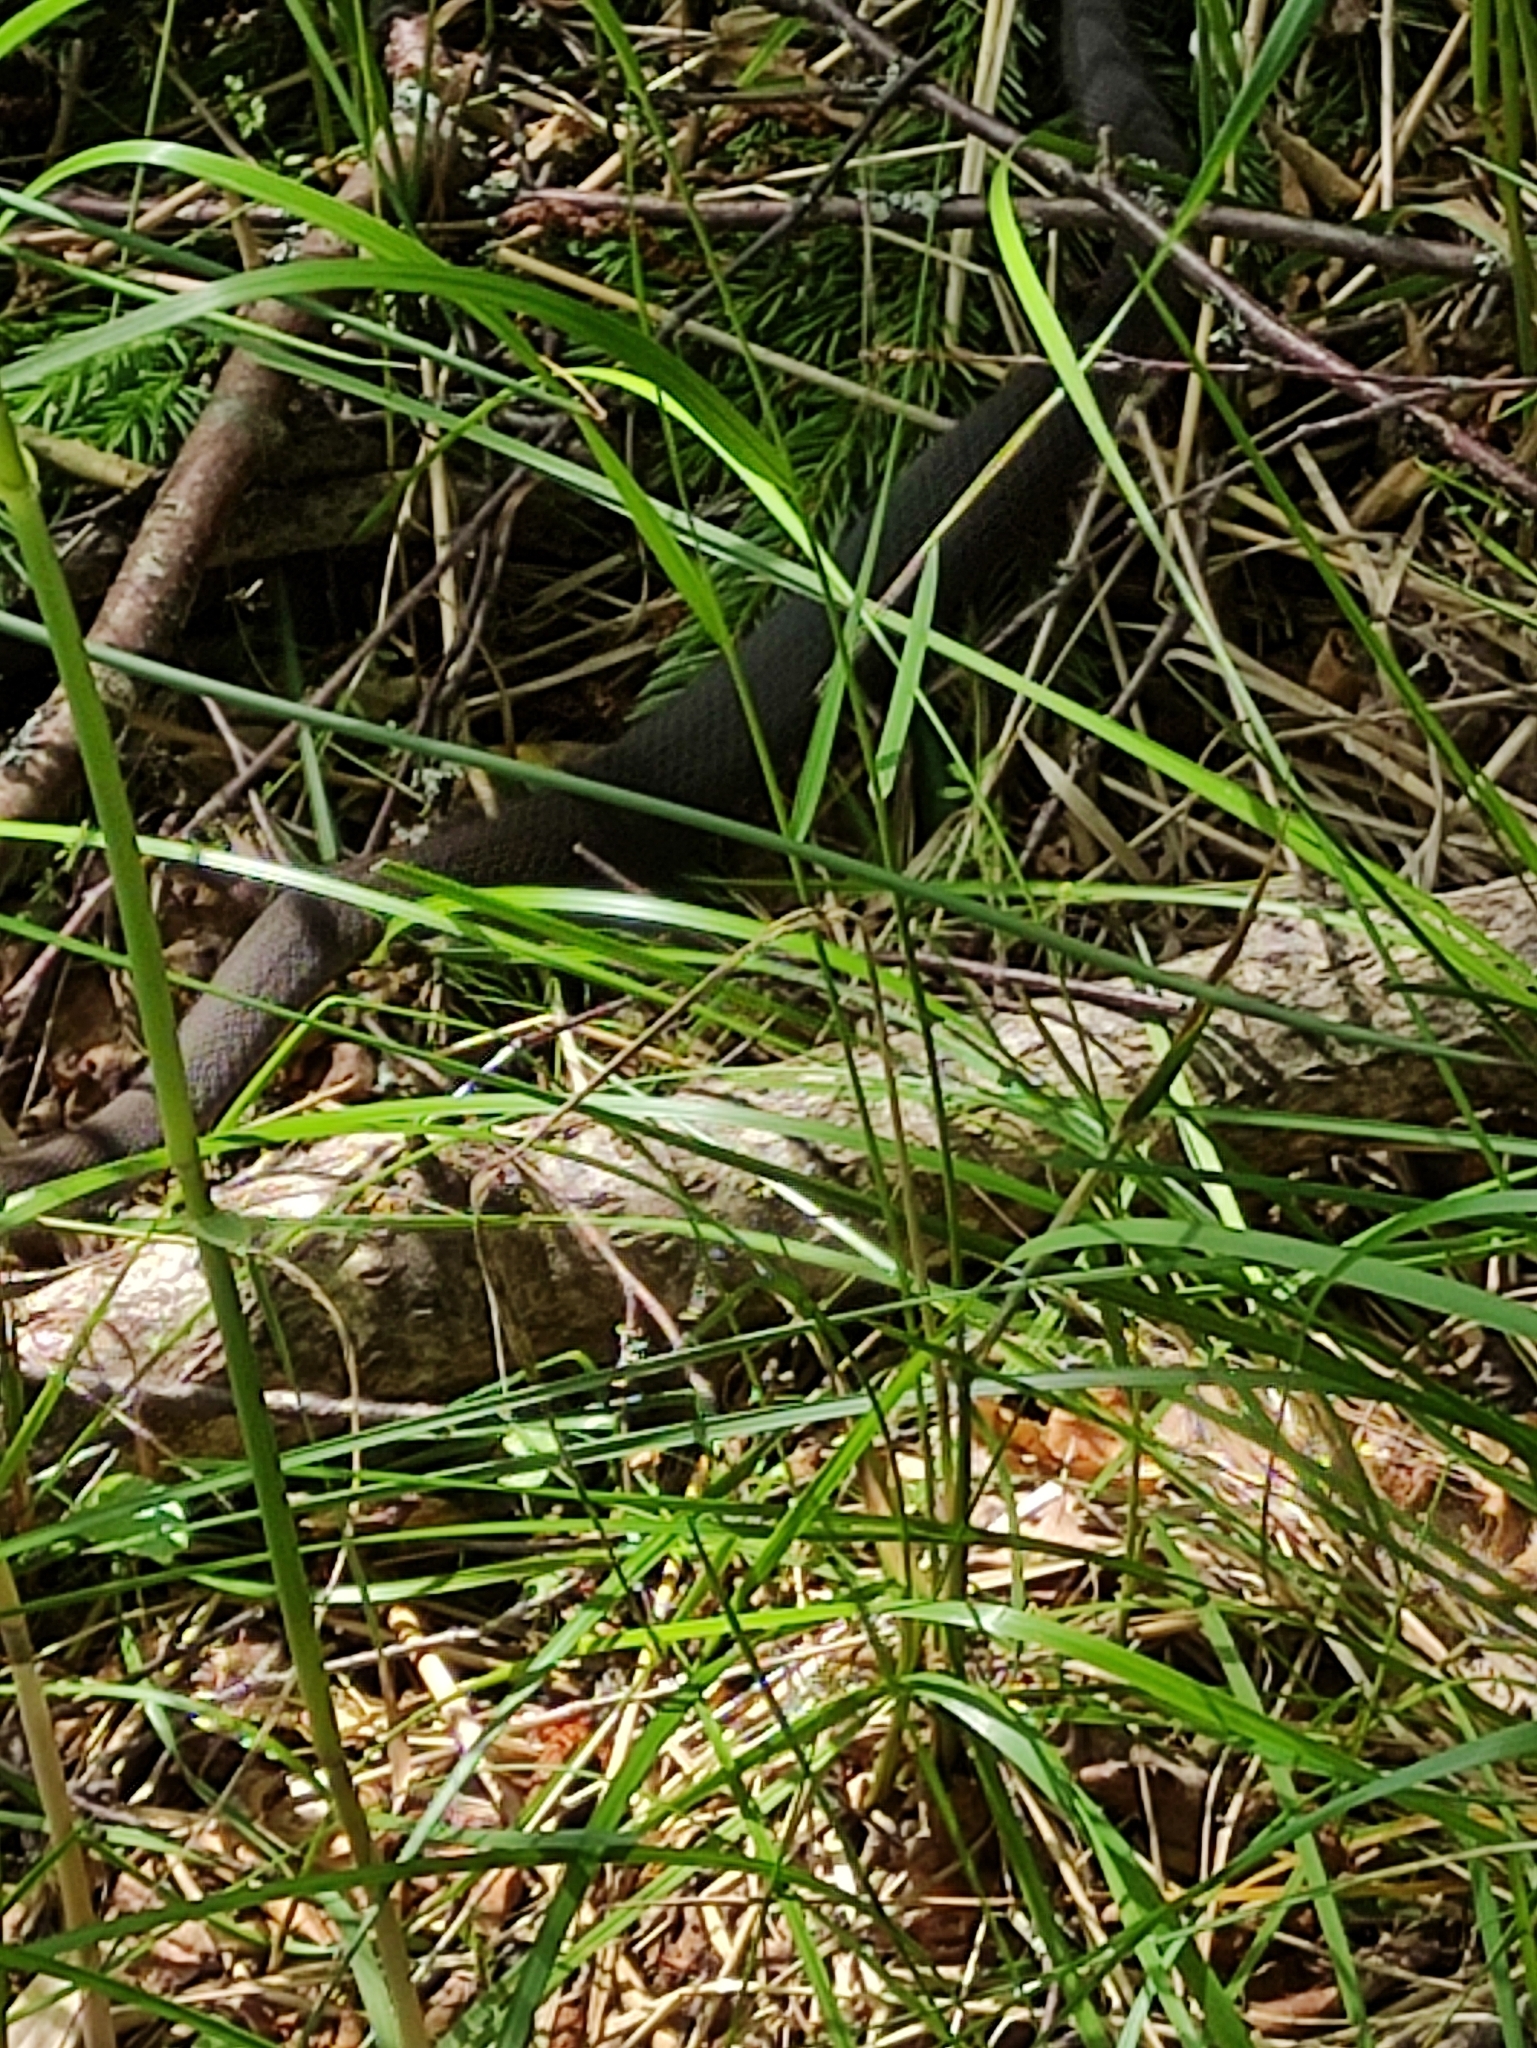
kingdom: Animalia
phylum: Chordata
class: Squamata
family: Viperidae
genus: Vipera
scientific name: Vipera berus
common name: Adder
